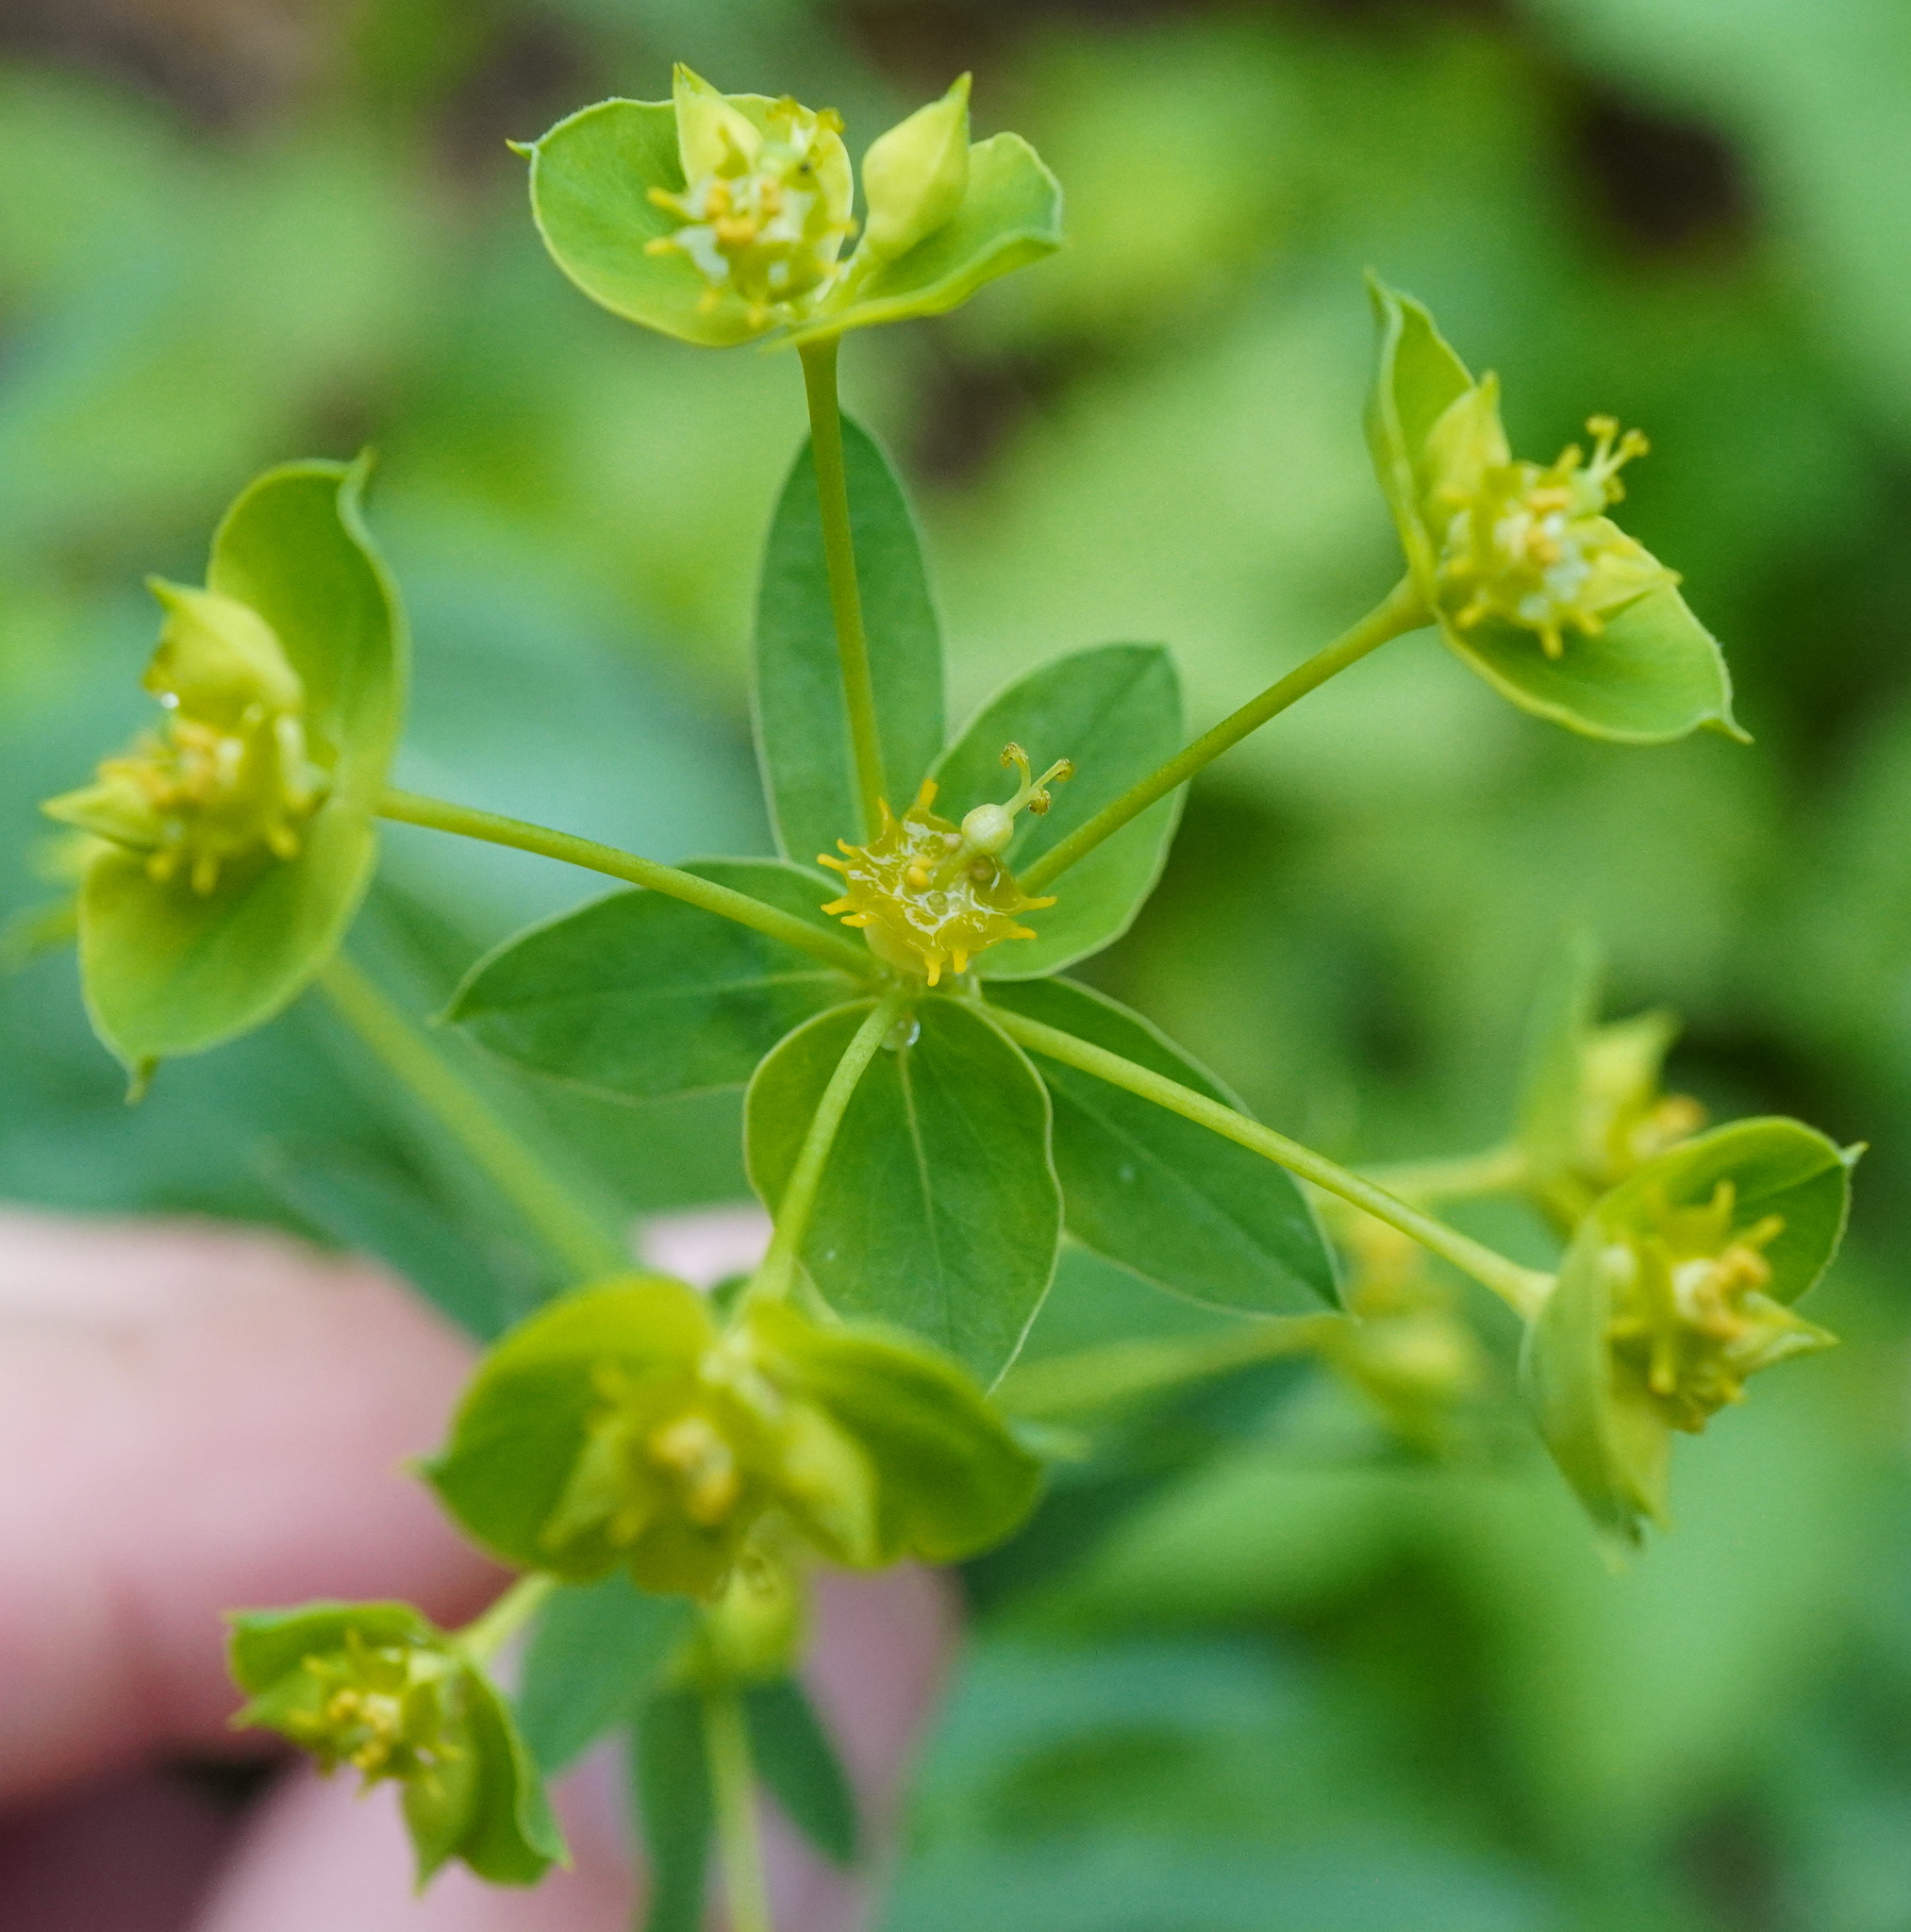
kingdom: Plantae
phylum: Tracheophyta
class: Magnoliopsida
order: Malpighiales
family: Euphorbiaceae
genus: Euphorbia
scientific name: Euphorbia saratoi
